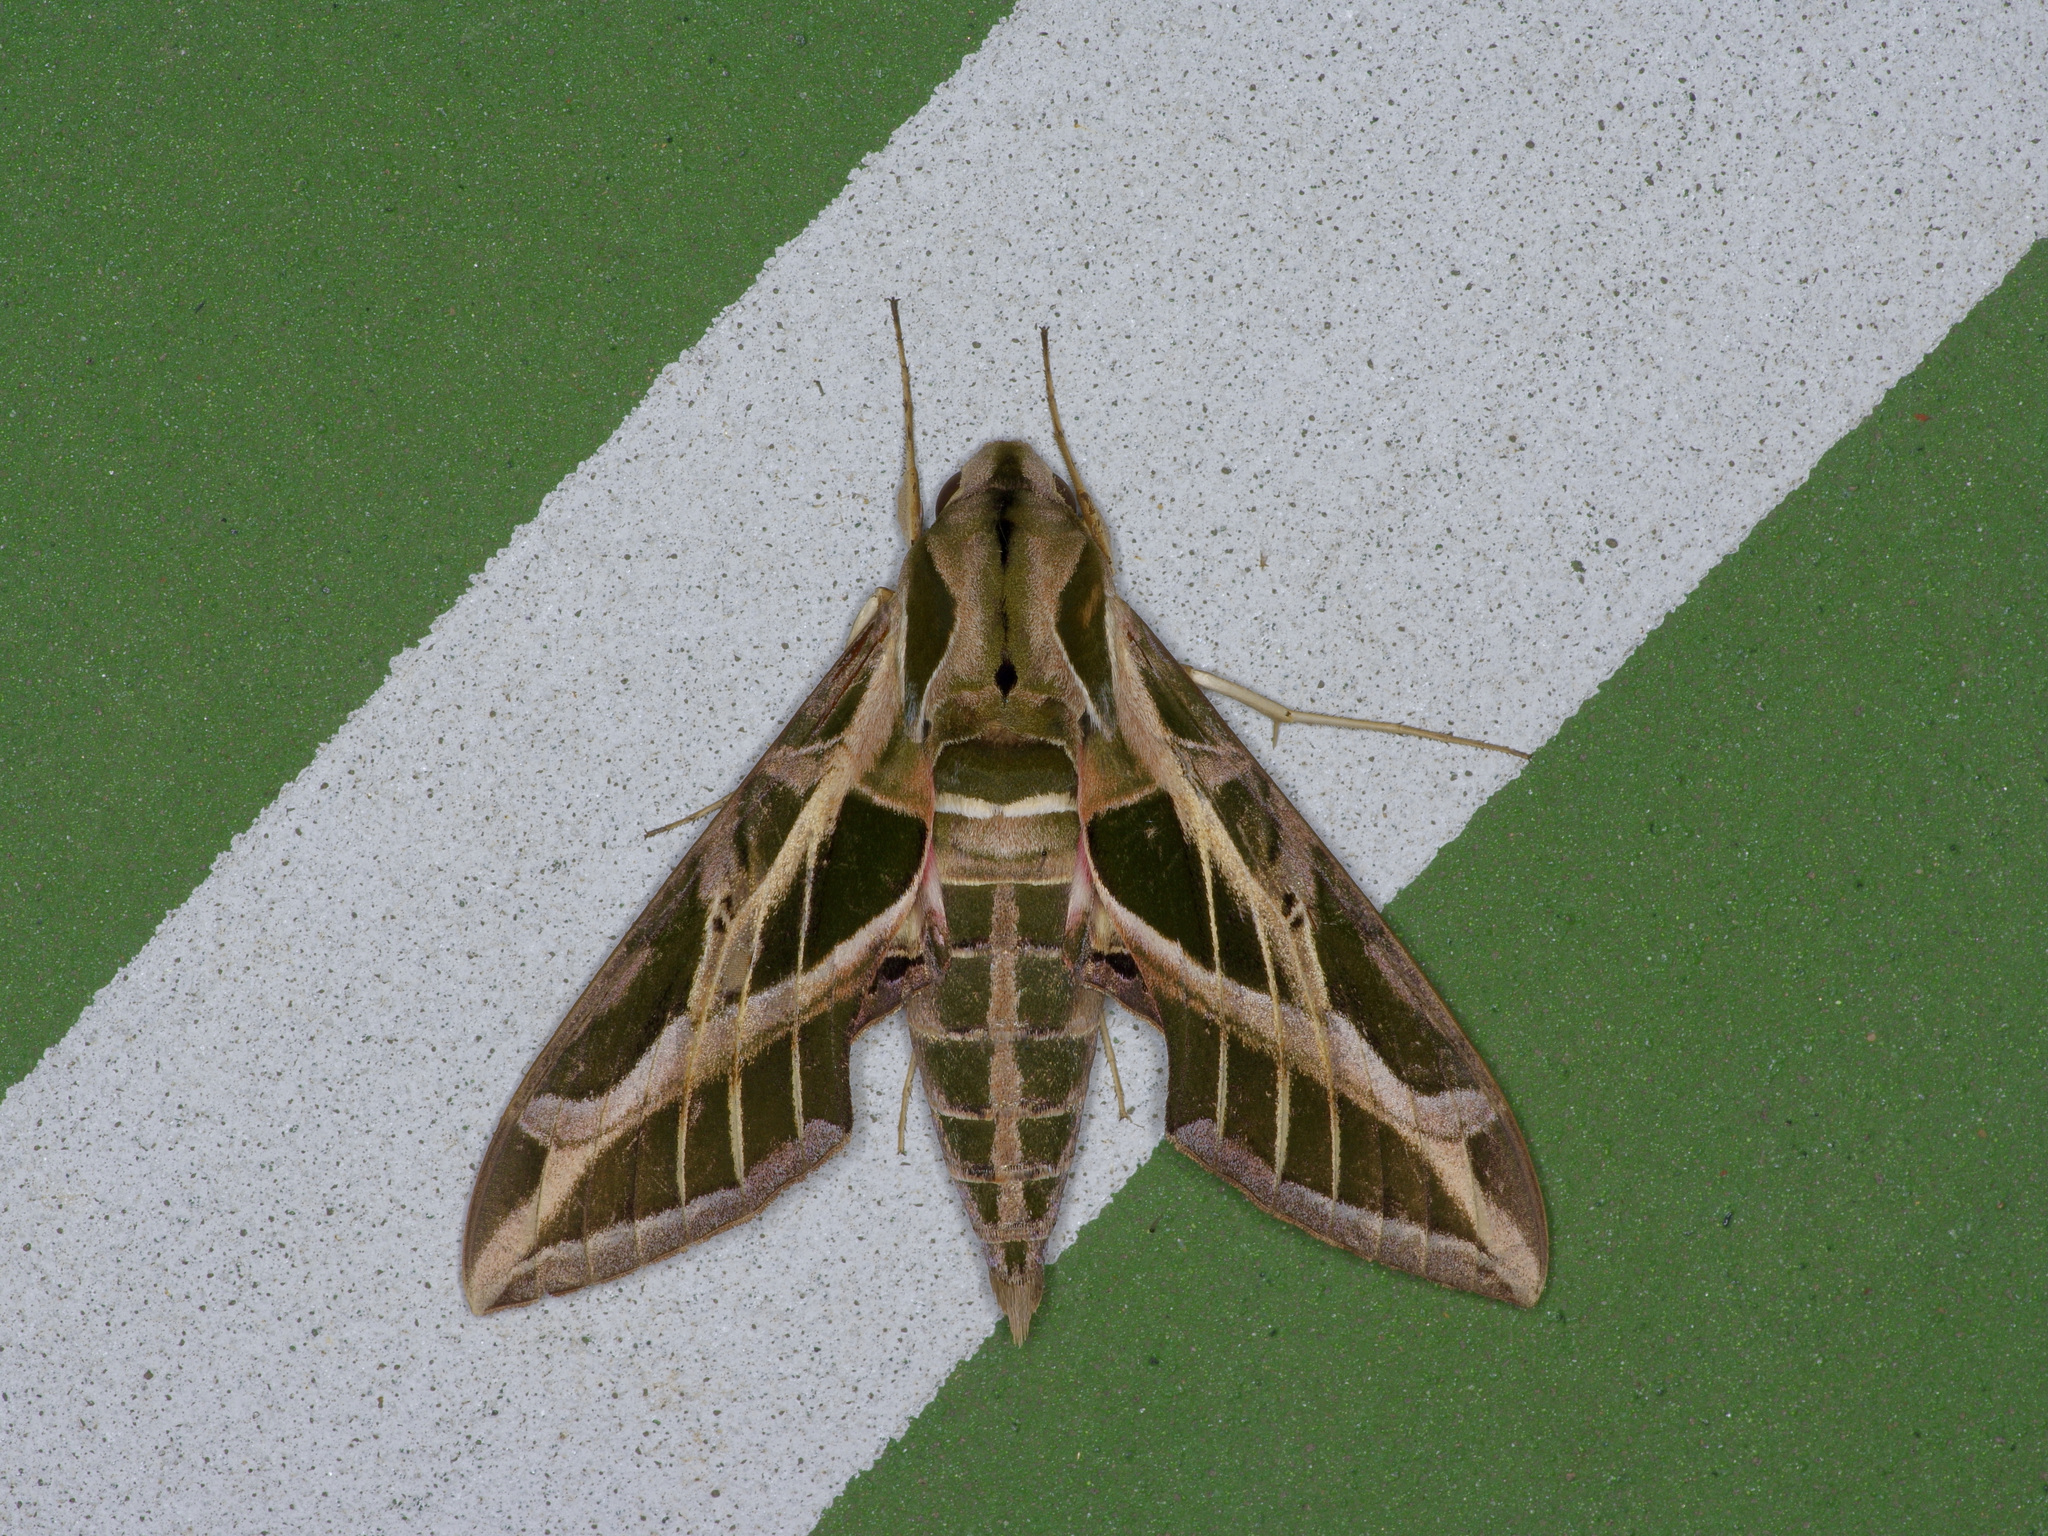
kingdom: Animalia
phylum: Arthropoda
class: Insecta
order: Lepidoptera
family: Sphingidae
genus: Eumorpha
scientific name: Eumorpha vitis
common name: Vine sphinx
